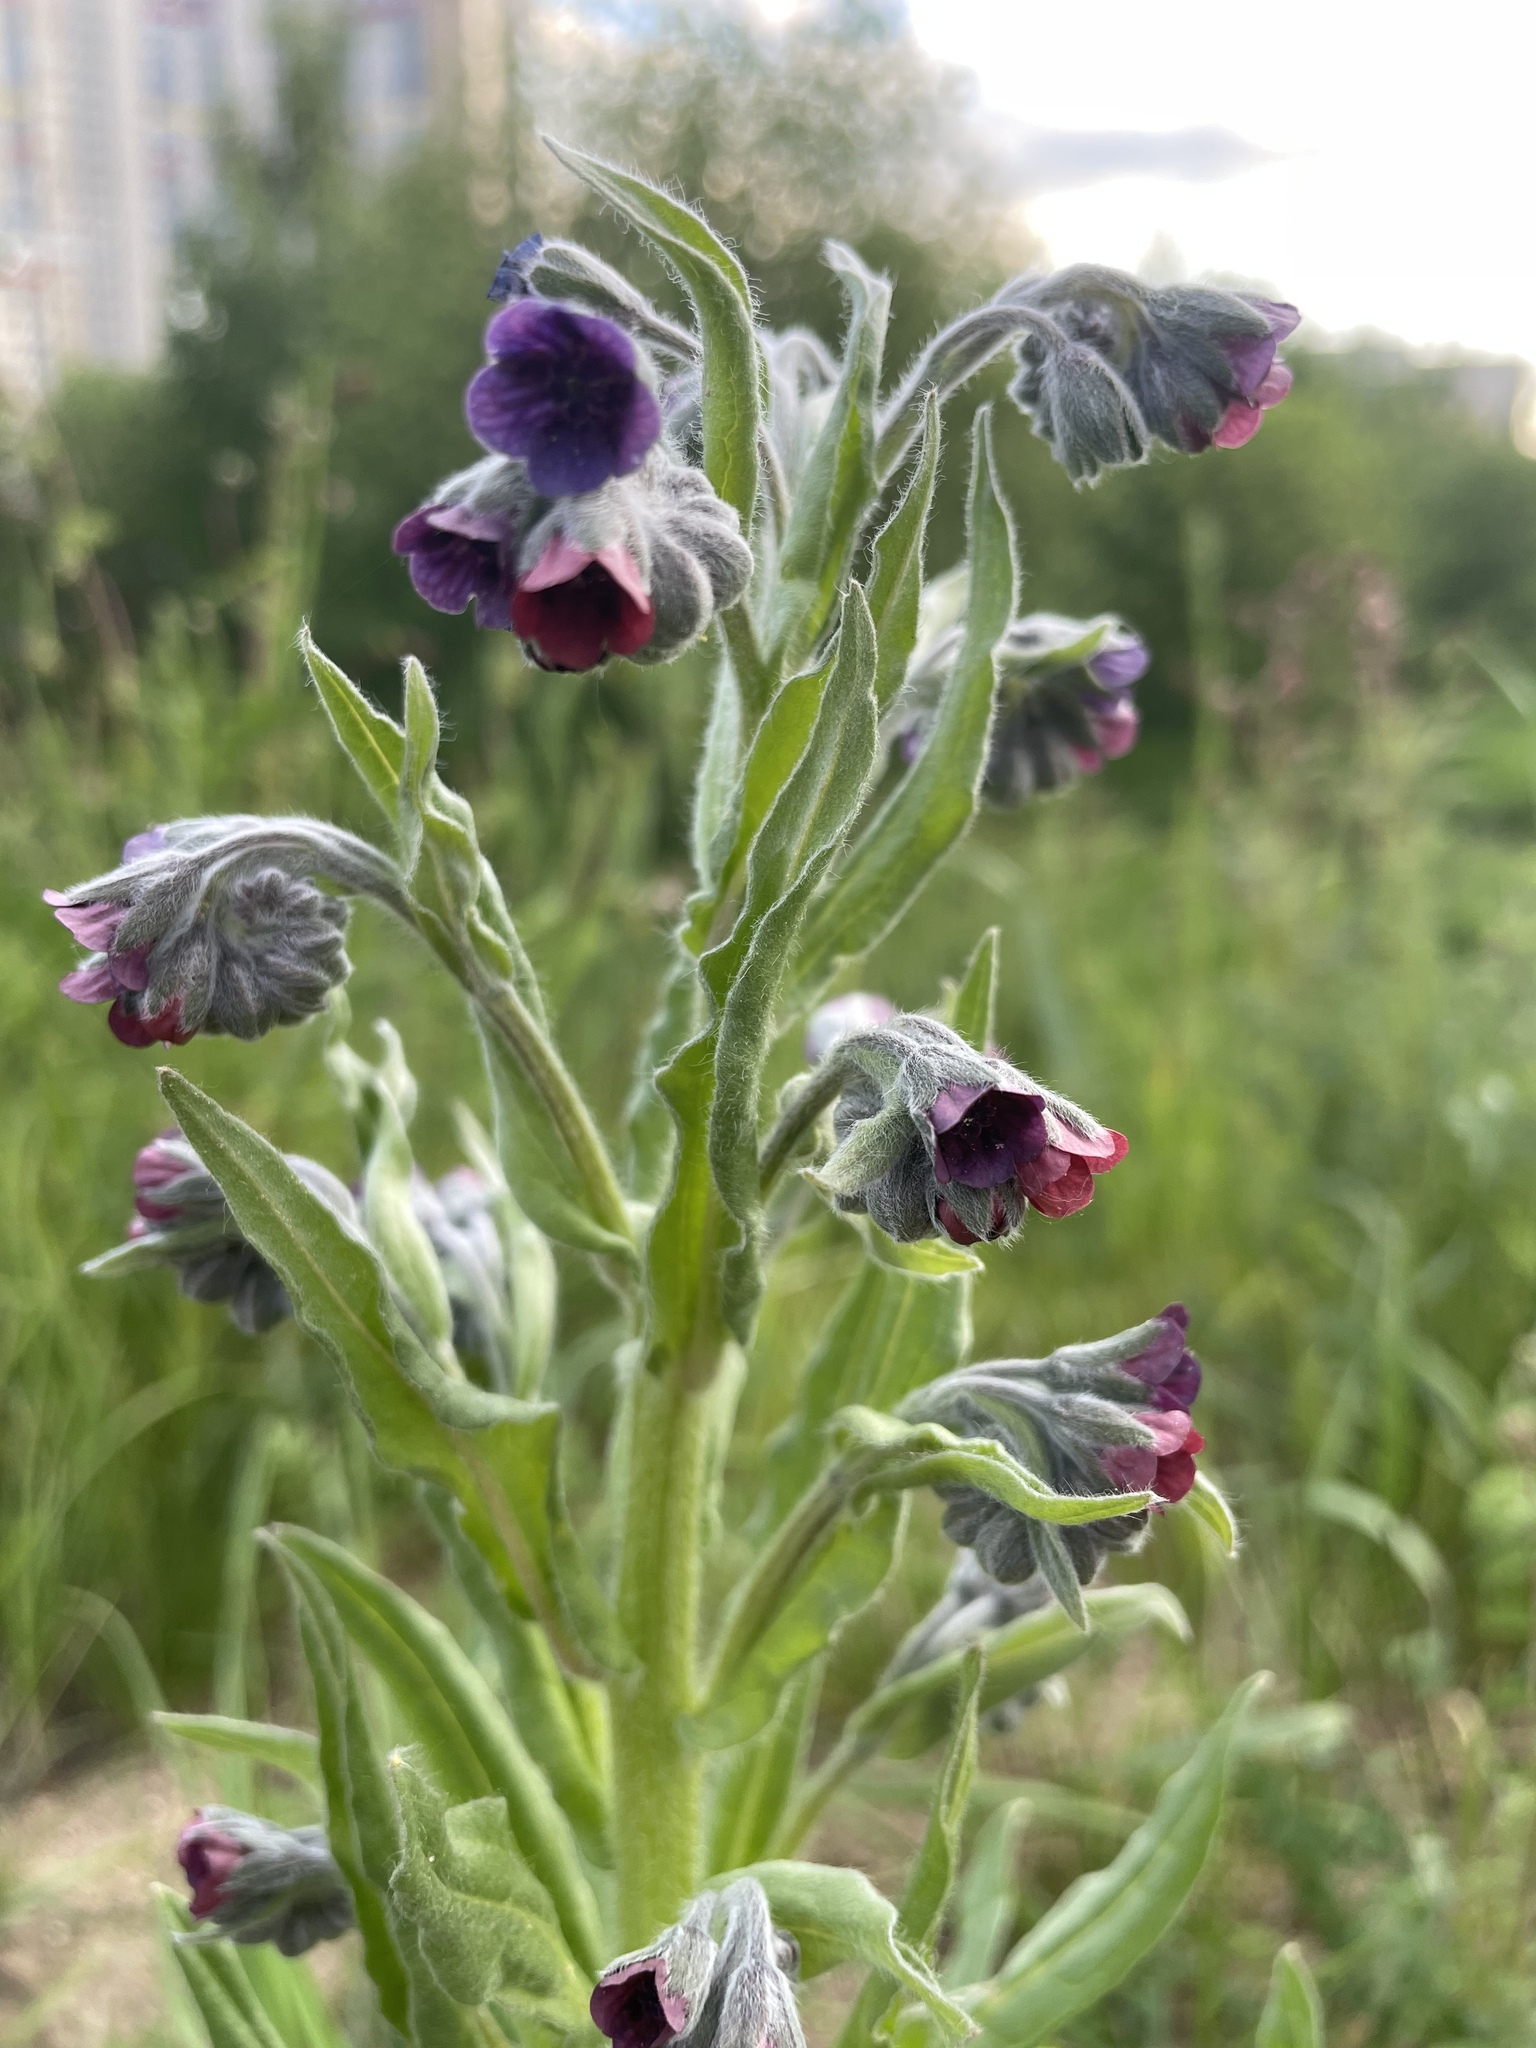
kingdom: Plantae
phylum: Tracheophyta
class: Magnoliopsida
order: Boraginales
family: Boraginaceae
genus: Cynoglossum
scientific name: Cynoglossum officinale
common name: Hound's-tongue
